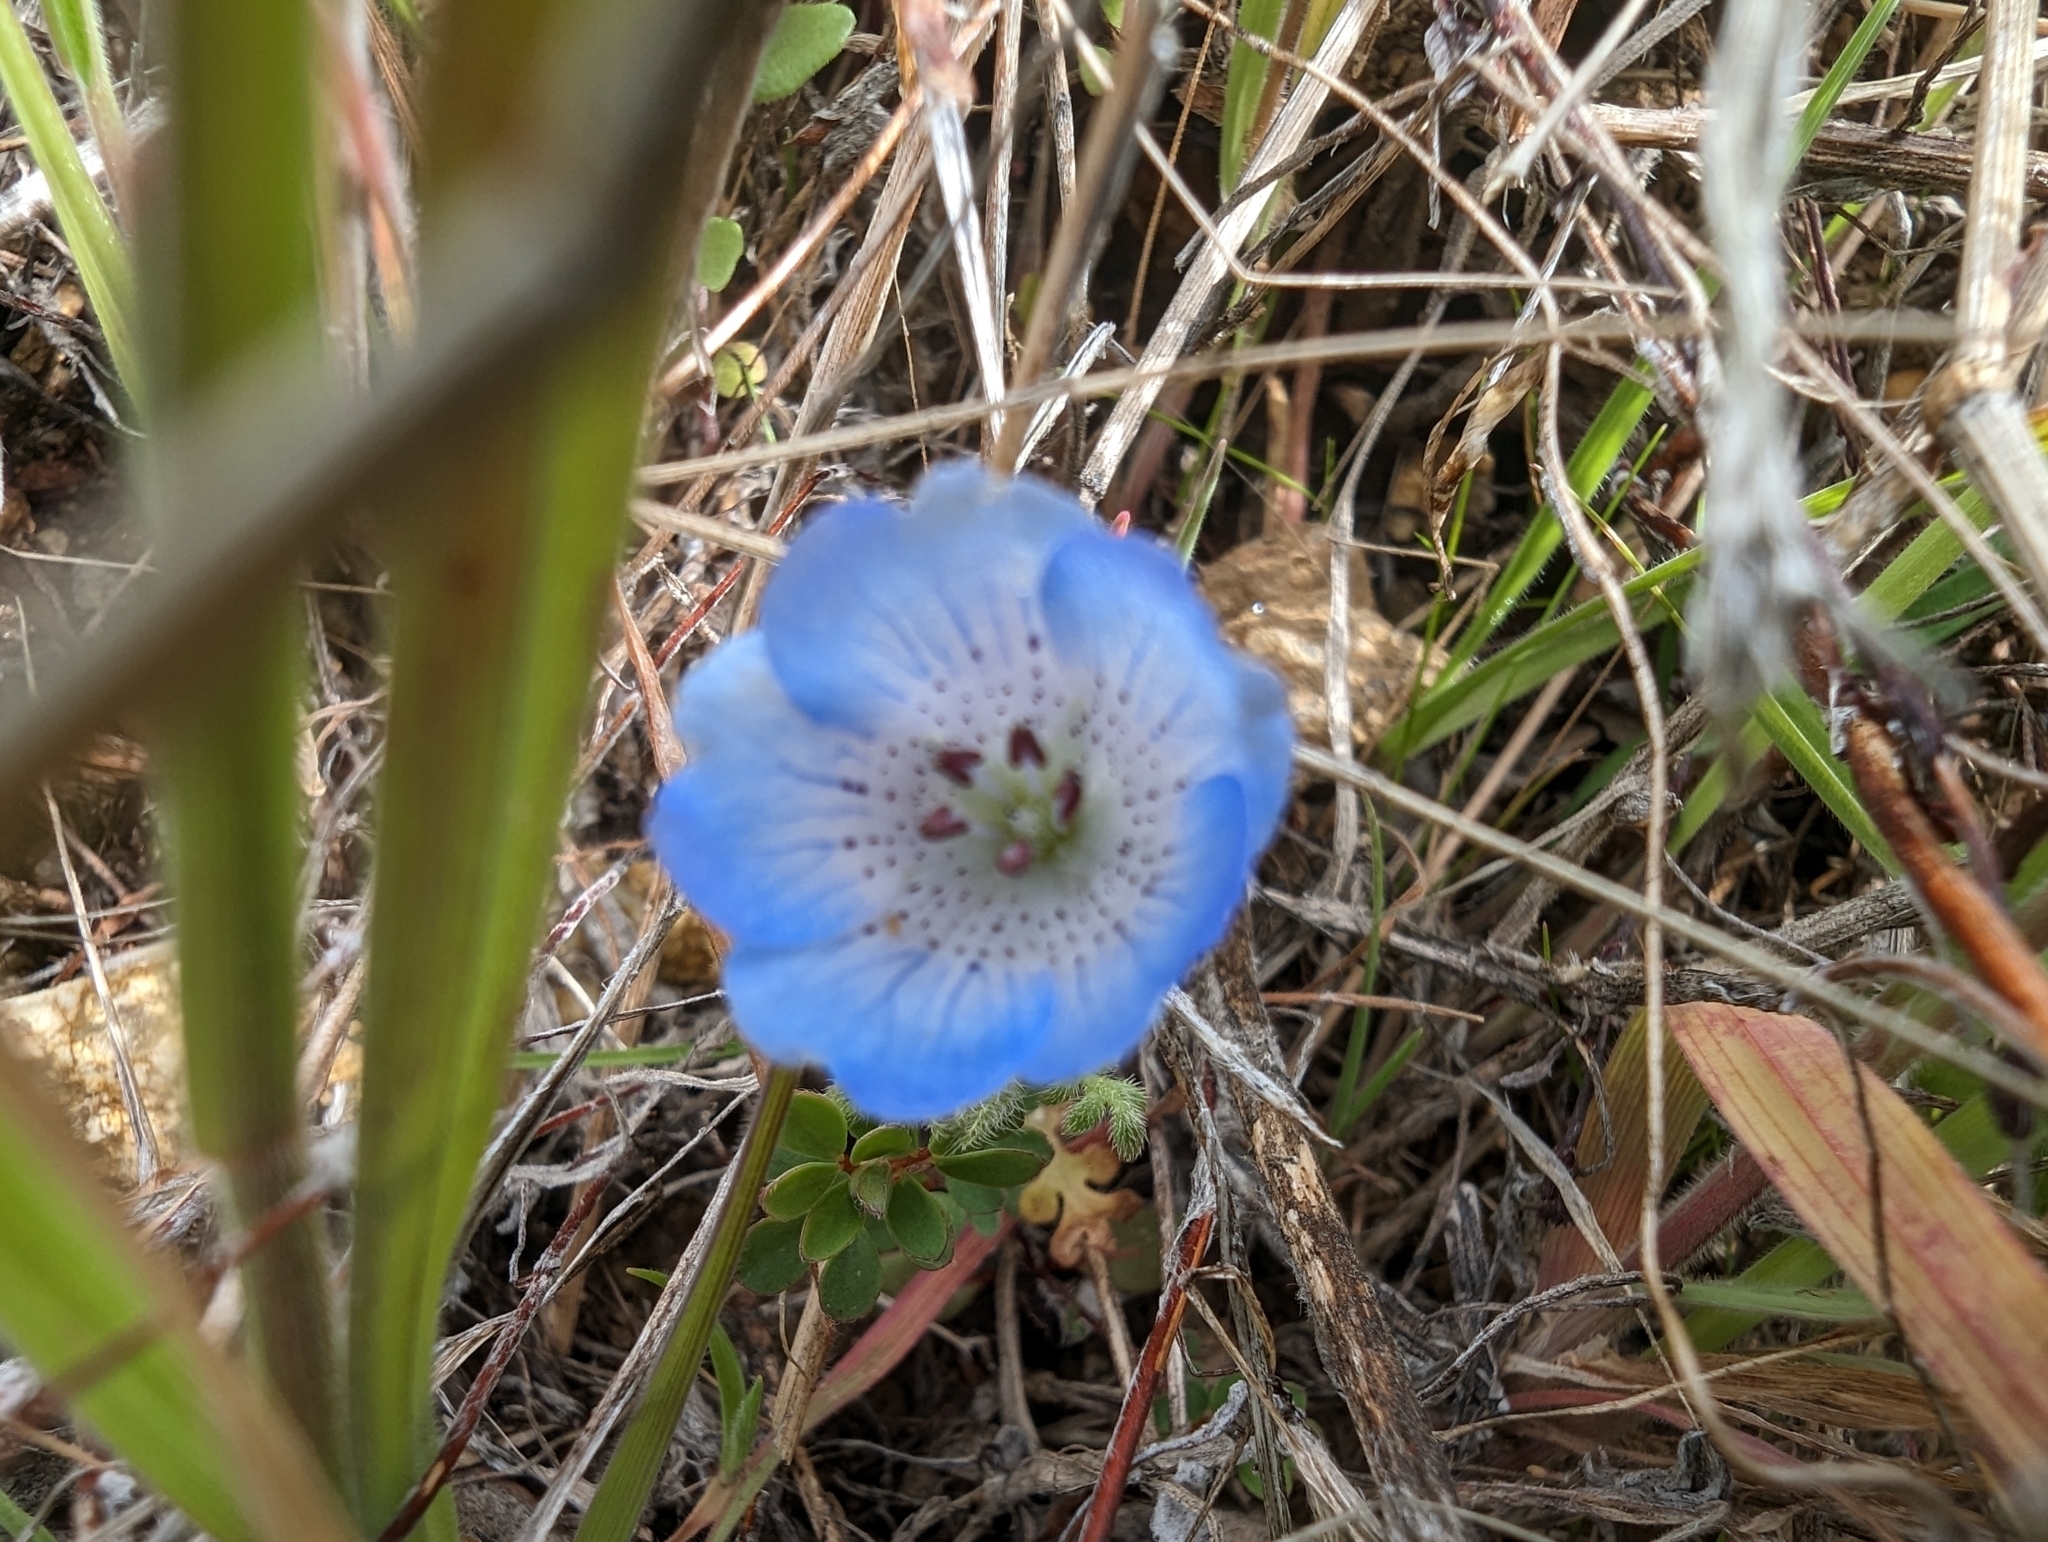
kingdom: Plantae
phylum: Tracheophyta
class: Magnoliopsida
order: Boraginales
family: Hydrophyllaceae
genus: Nemophila
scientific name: Nemophila menziesii
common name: Baby's-blue-eyes
